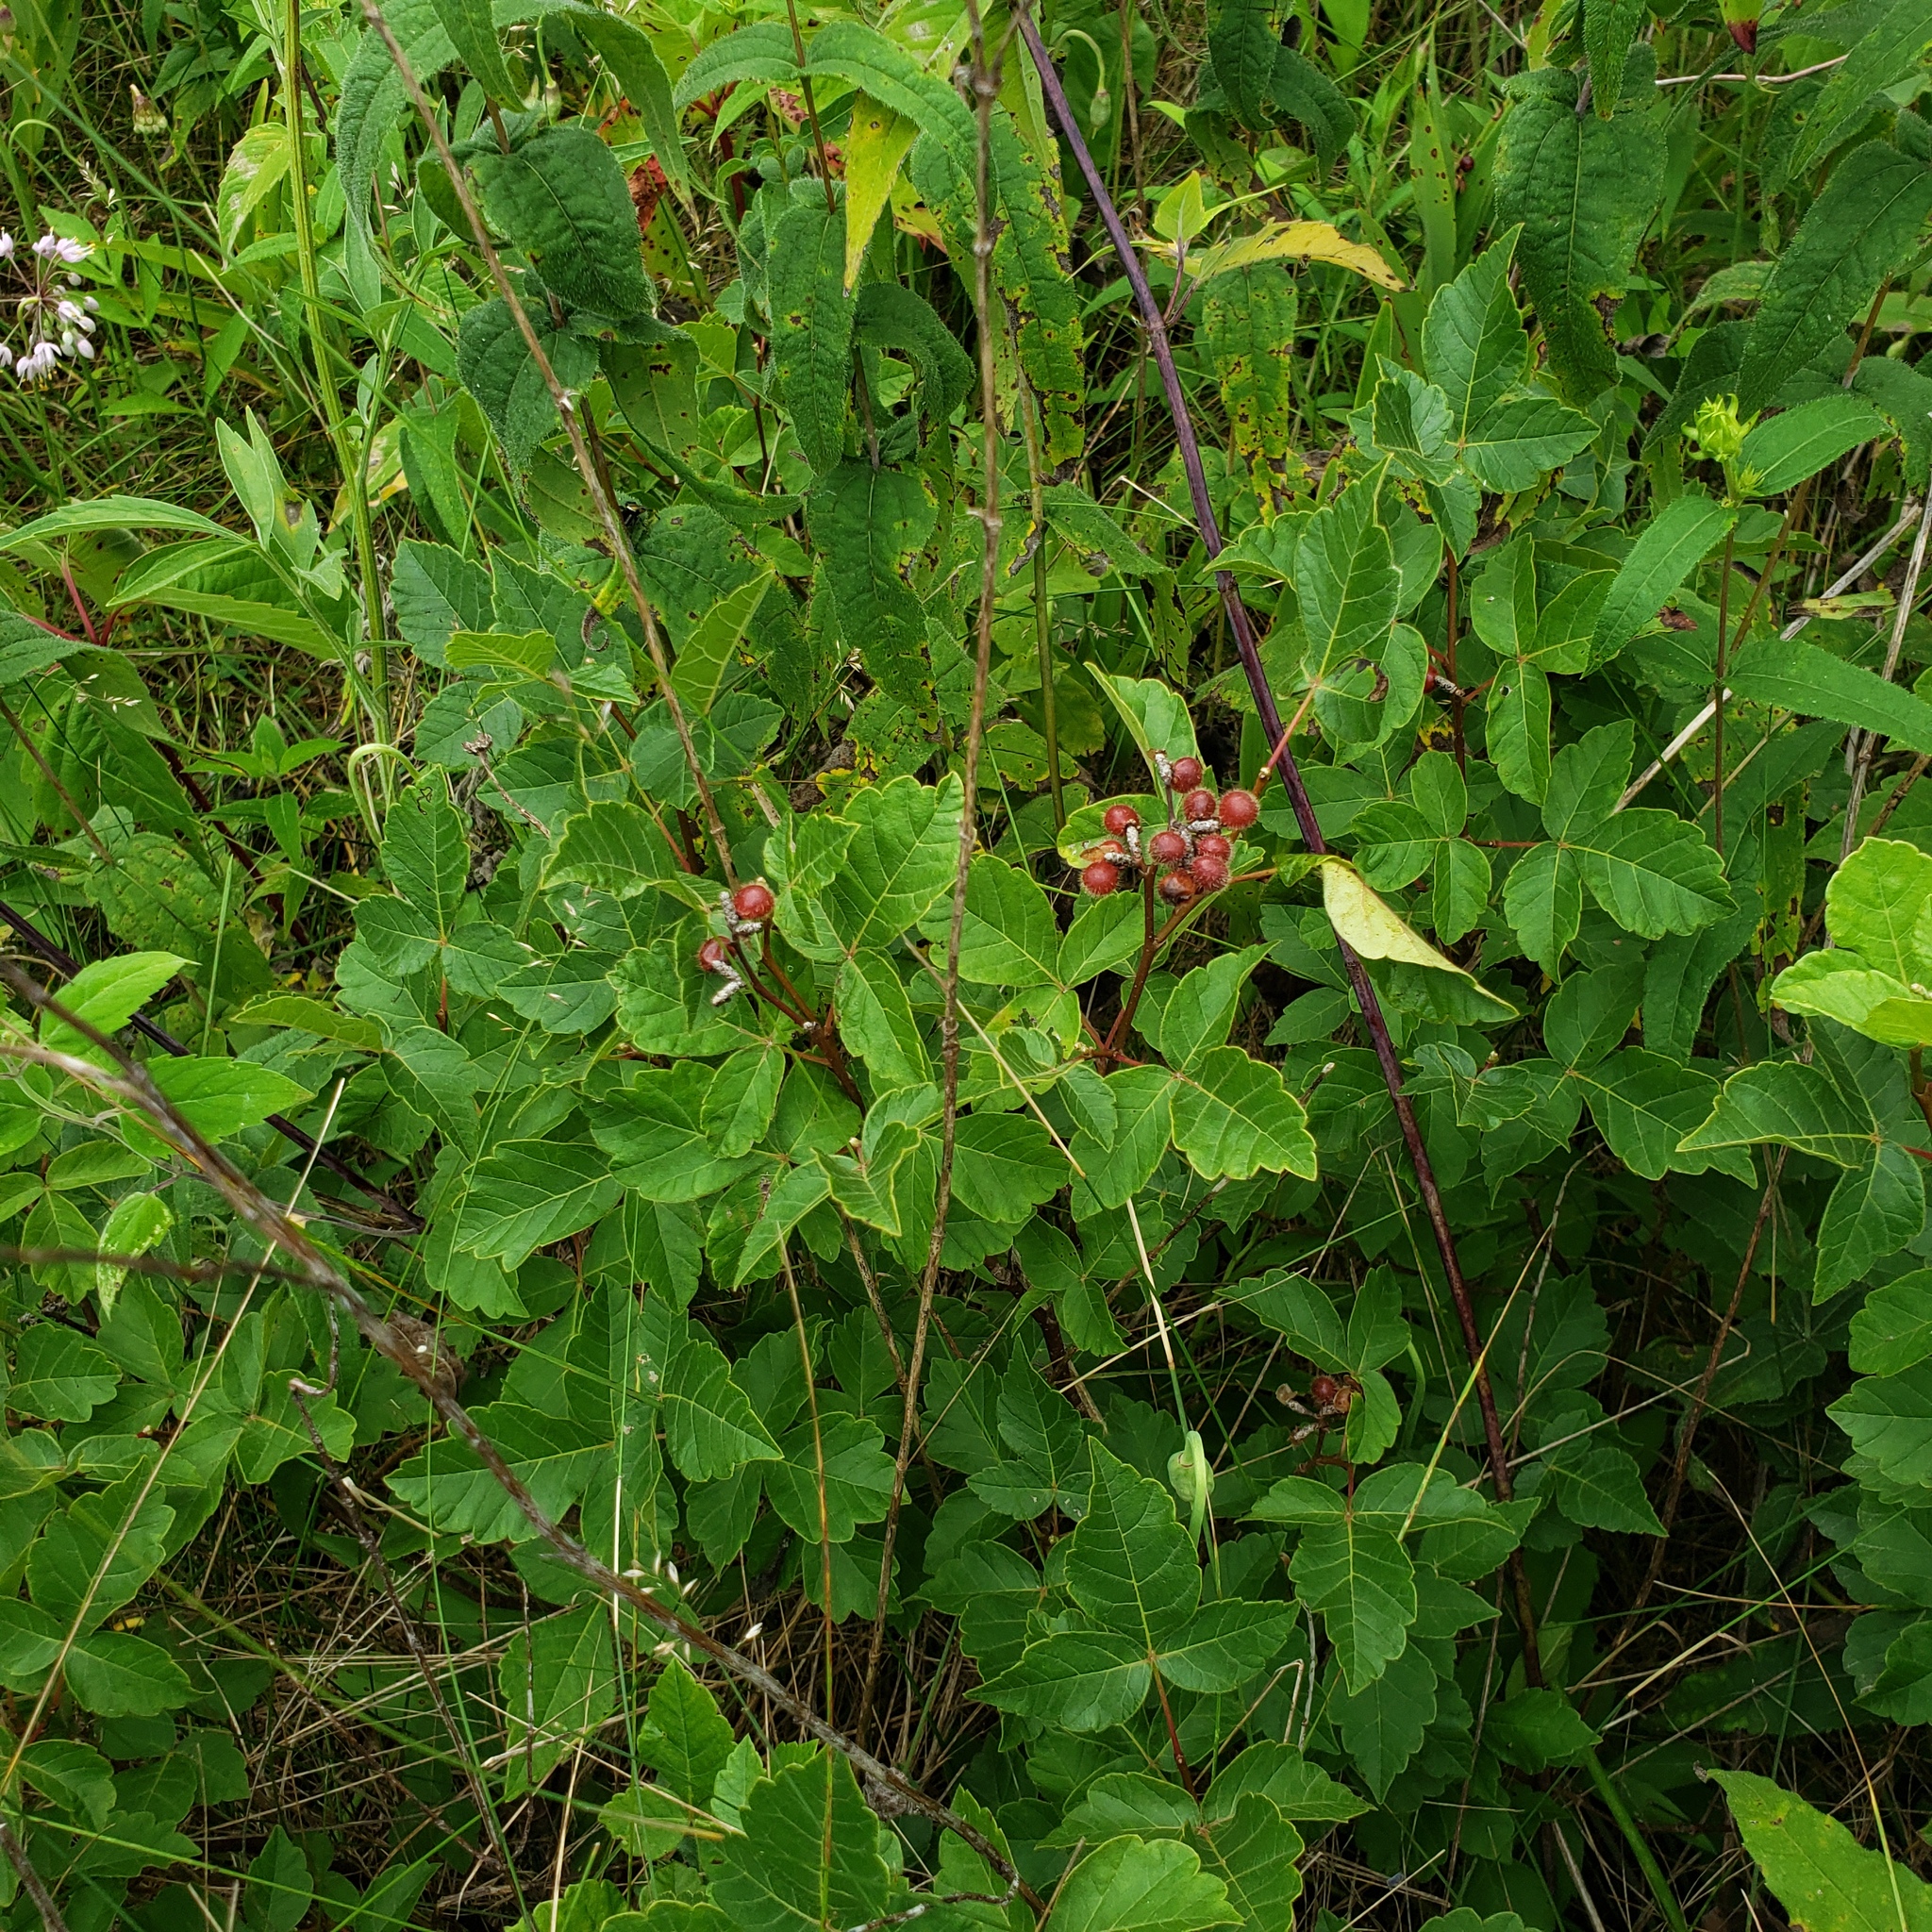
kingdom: Plantae
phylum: Tracheophyta
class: Magnoliopsida
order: Sapindales
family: Anacardiaceae
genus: Rhus
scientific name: Rhus aromatica
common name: Aromatic sumac
